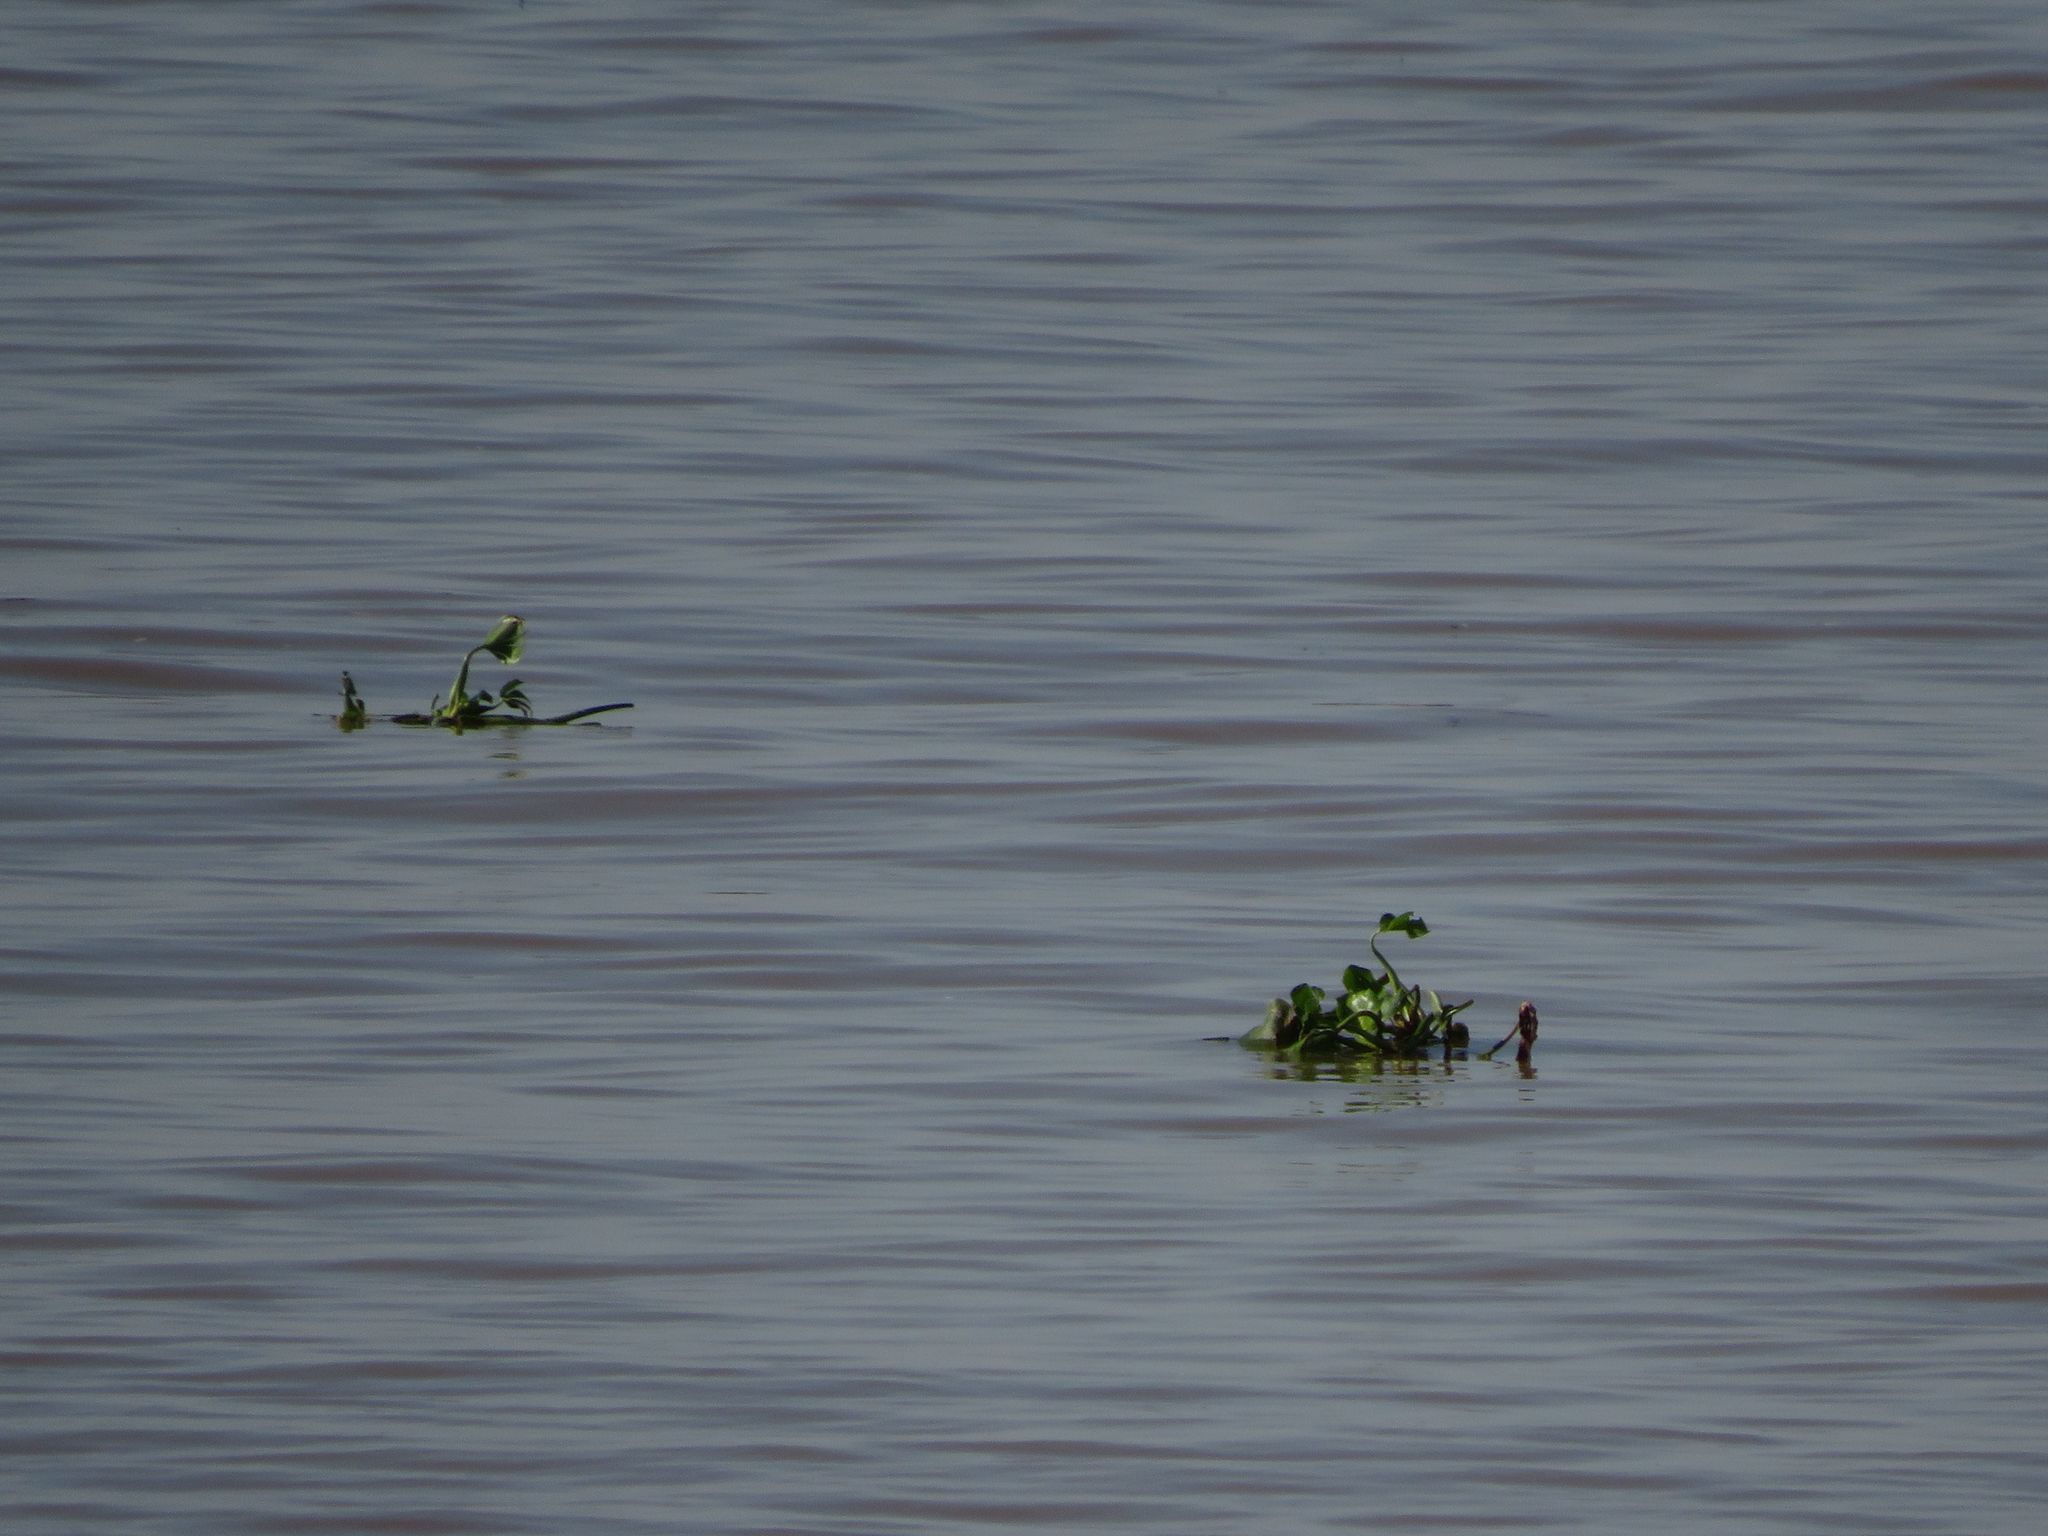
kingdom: Plantae
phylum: Tracheophyta
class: Liliopsida
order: Commelinales
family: Pontederiaceae
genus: Pontederia
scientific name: Pontederia crassipes
